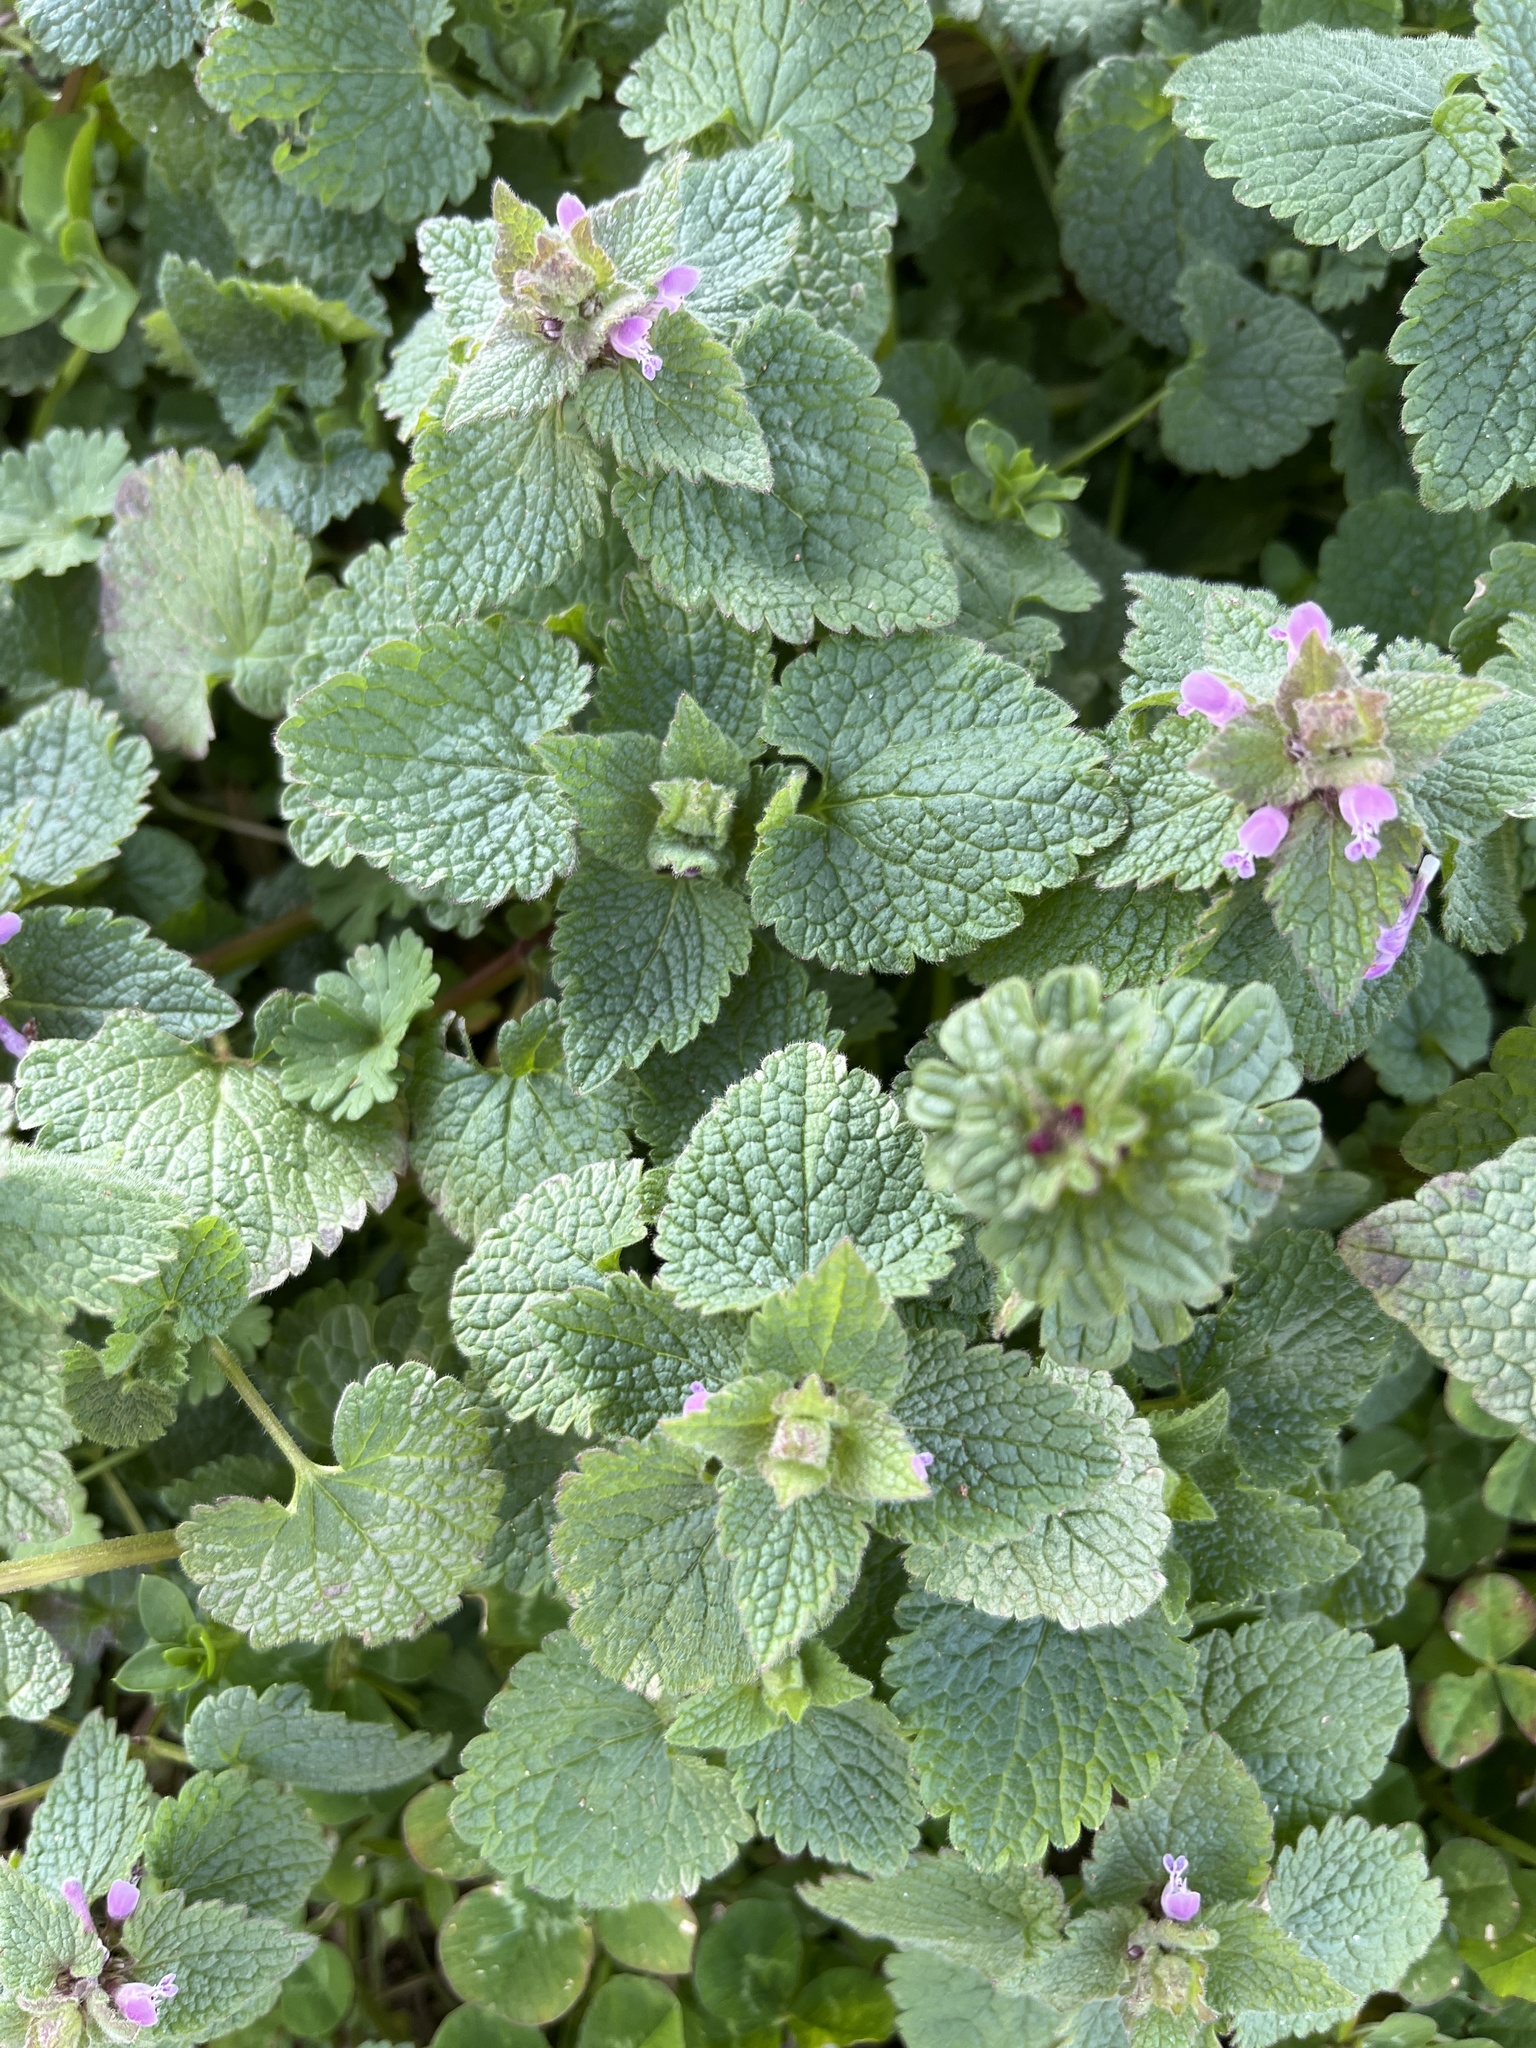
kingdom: Plantae
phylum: Tracheophyta
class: Magnoliopsida
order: Lamiales
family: Lamiaceae
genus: Lamium
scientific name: Lamium purpureum
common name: Red dead-nettle
